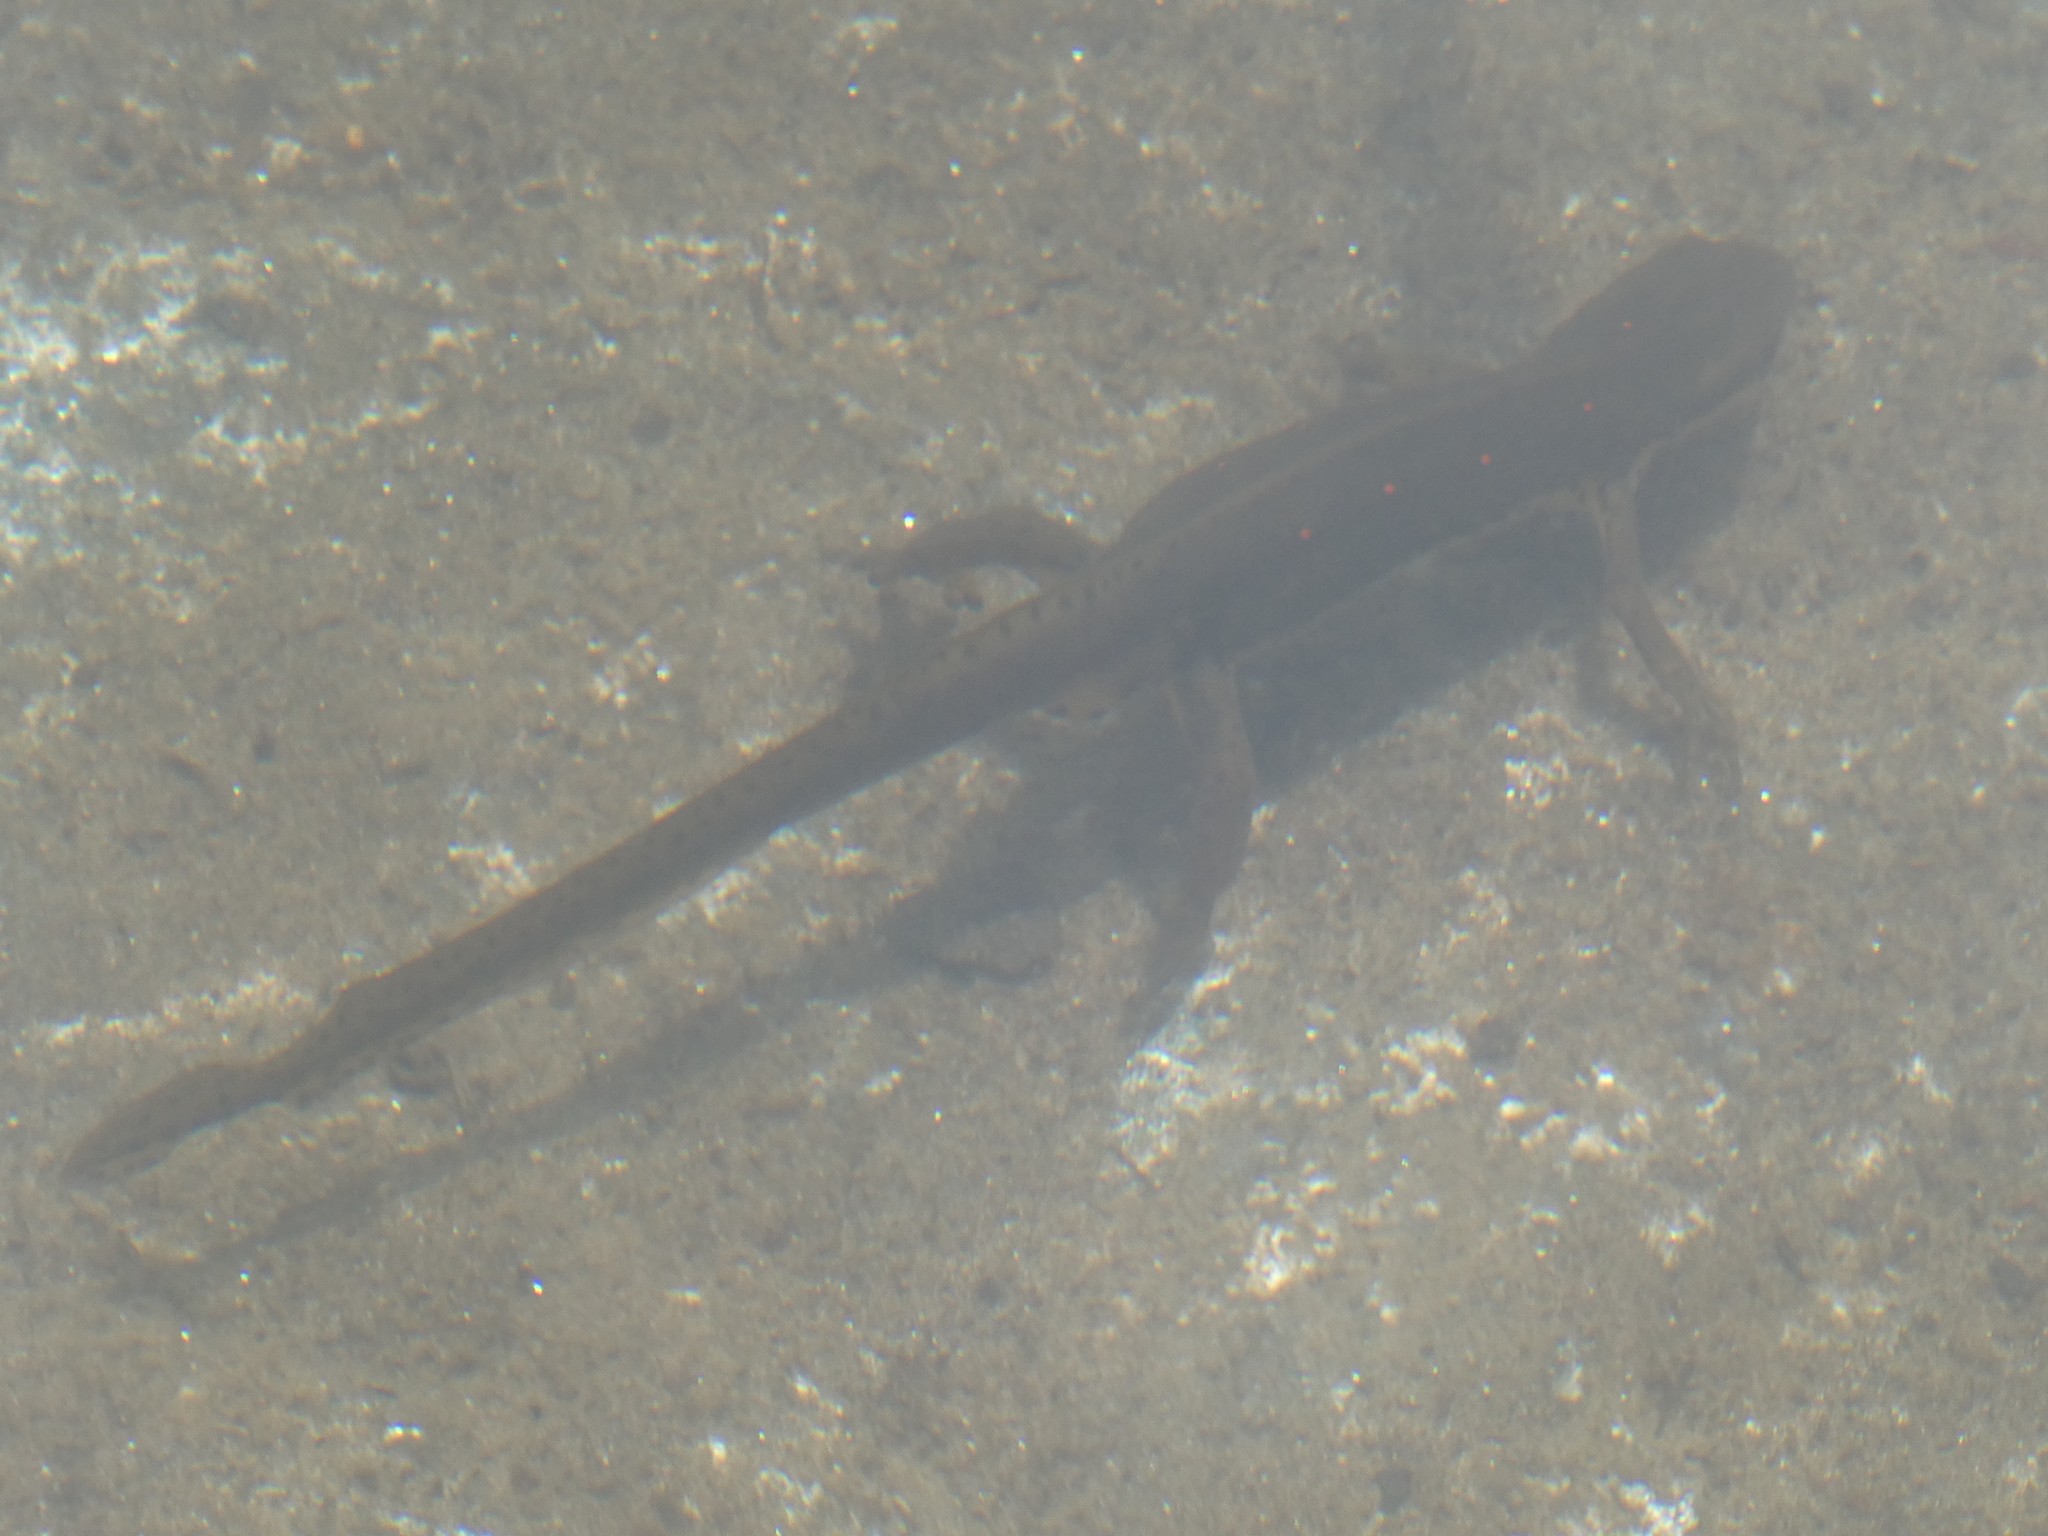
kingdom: Animalia
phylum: Chordata
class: Amphibia
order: Caudata
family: Salamandridae
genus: Notophthalmus
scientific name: Notophthalmus viridescens
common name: Eastern newt
